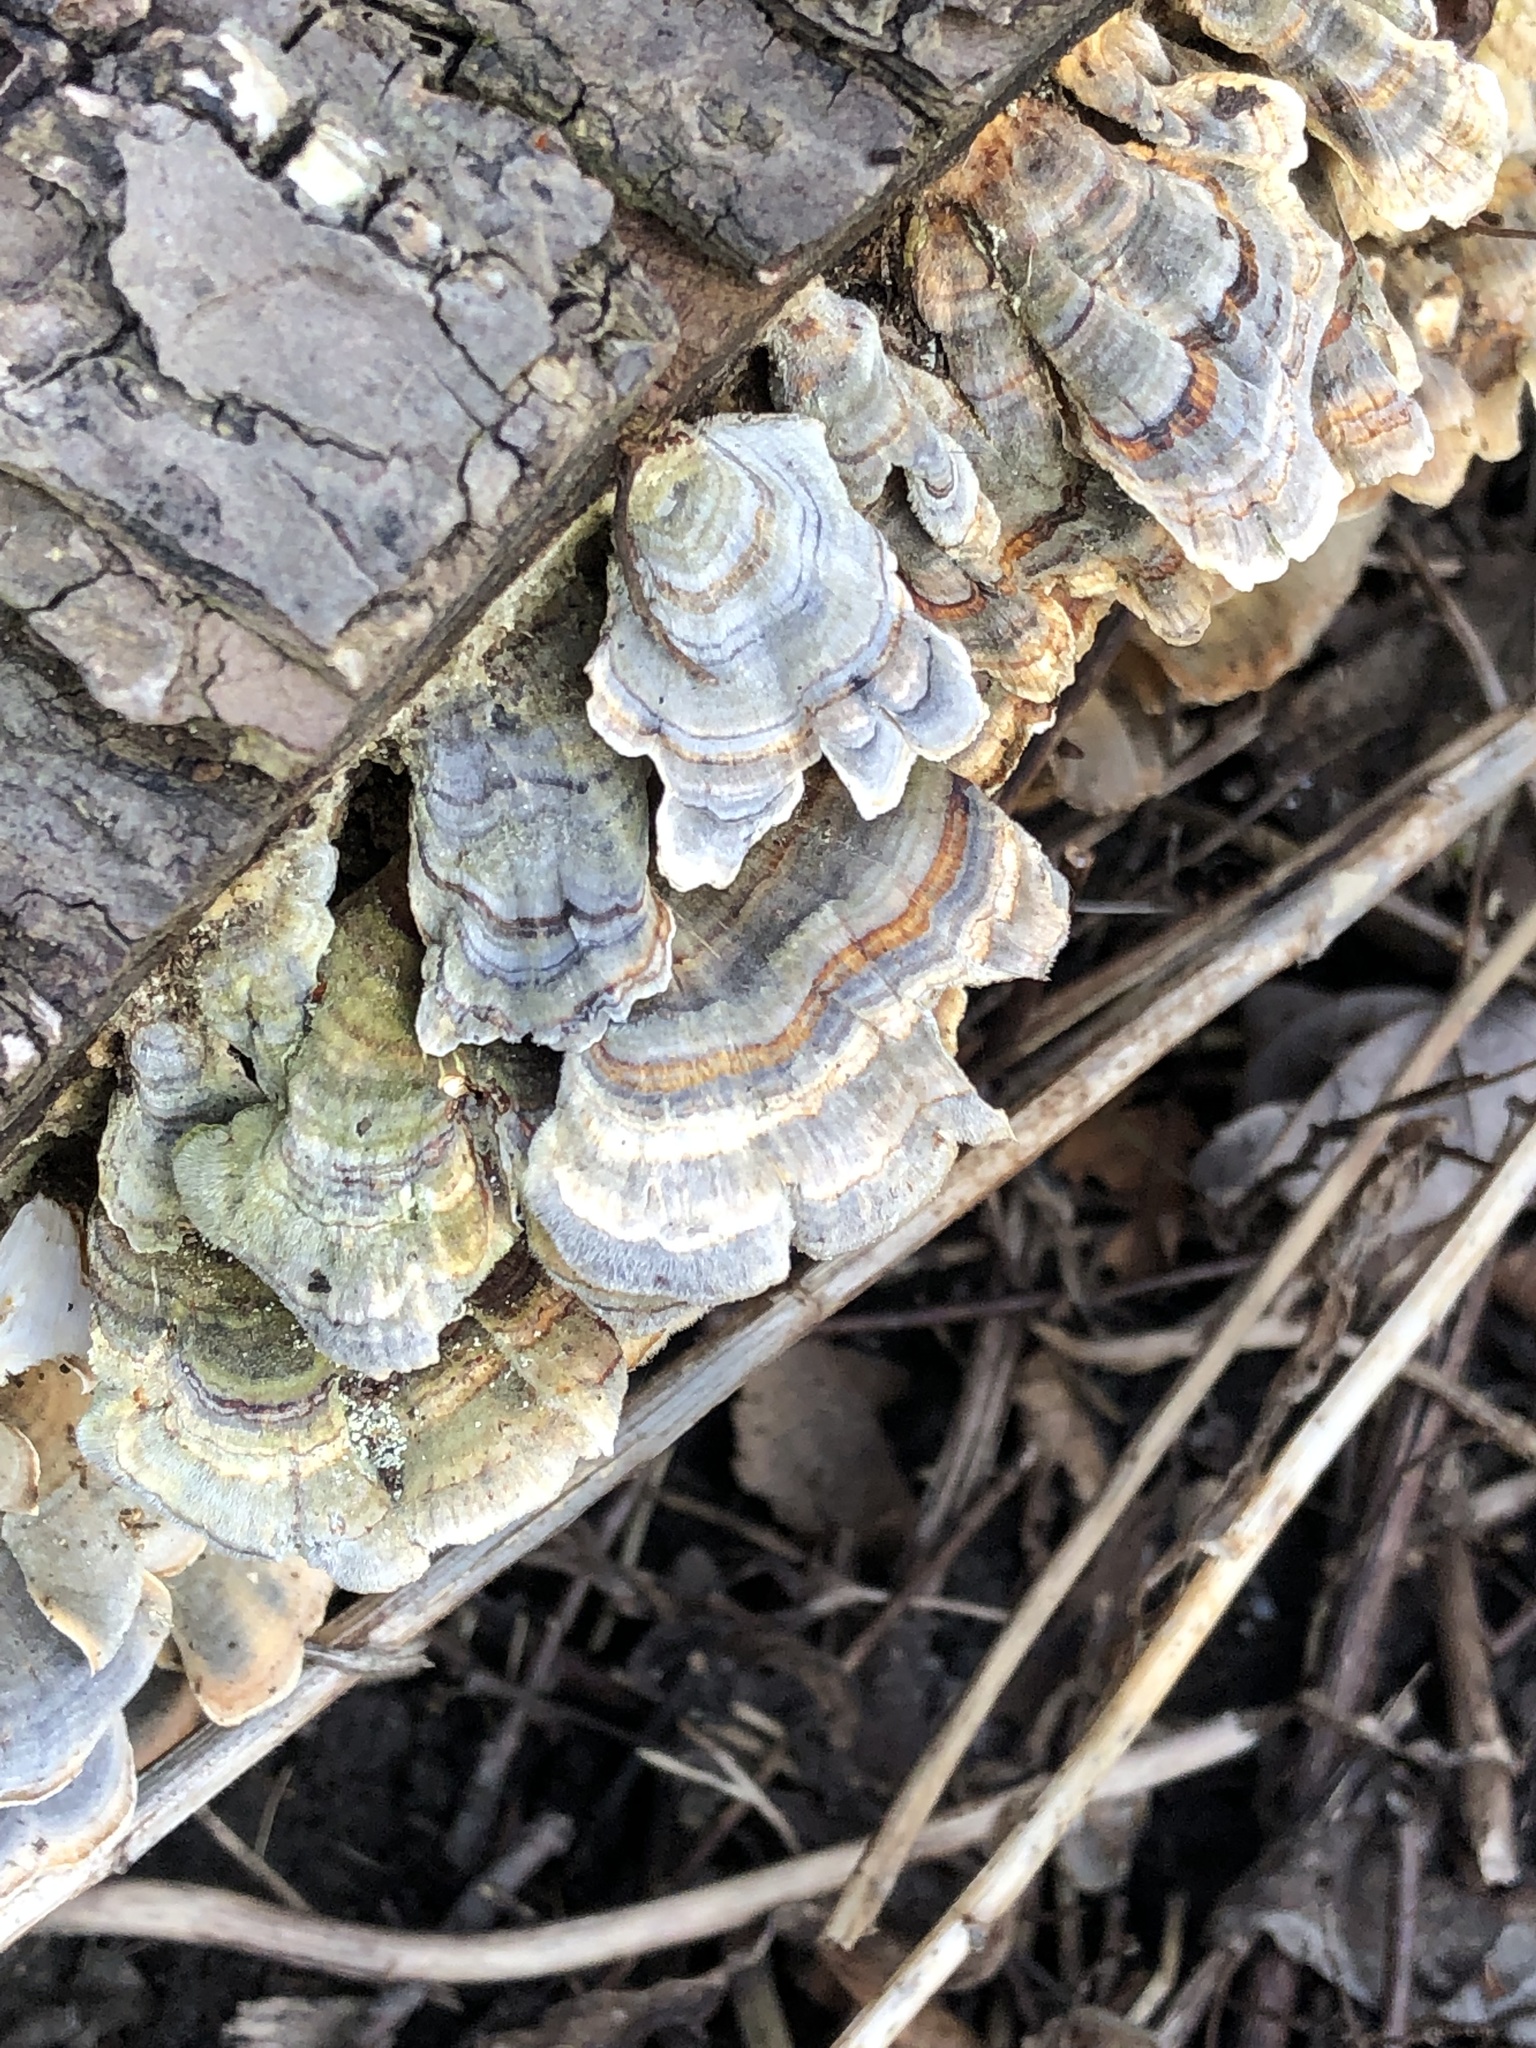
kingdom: Fungi
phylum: Basidiomycota
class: Agaricomycetes
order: Polyporales
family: Polyporaceae
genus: Trametes
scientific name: Trametes versicolor
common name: Turkeytail
